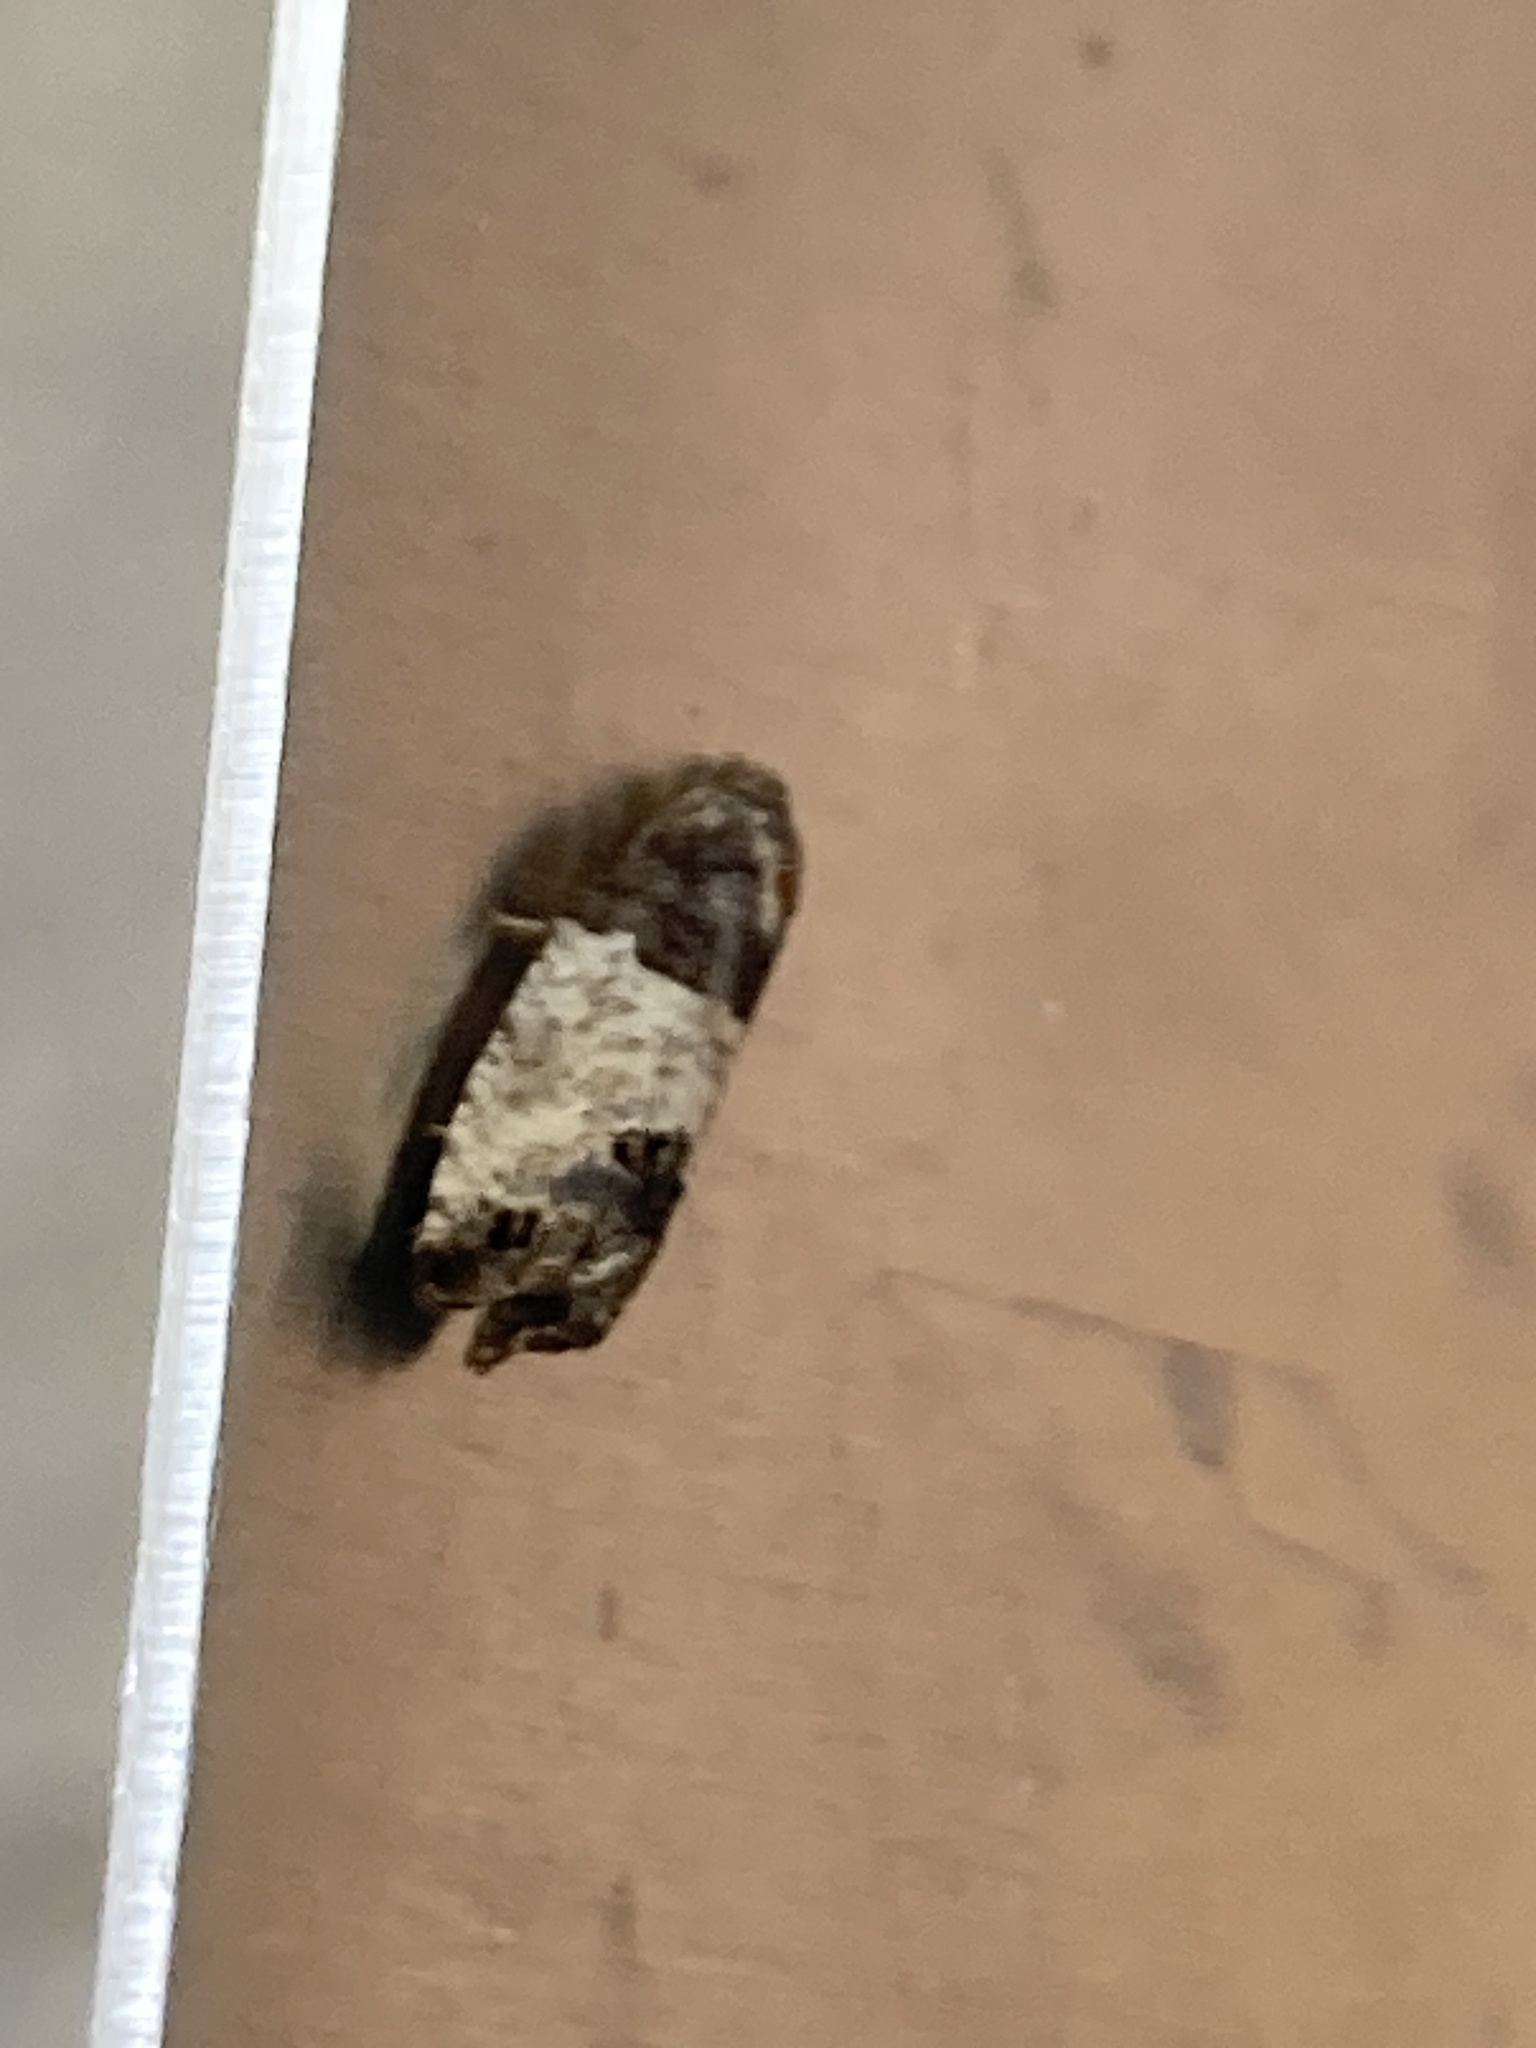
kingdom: Animalia
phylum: Arthropoda
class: Insecta
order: Lepidoptera
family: Tortricidae
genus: Spilonota
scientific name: Spilonota ocellana
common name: Bud moth
